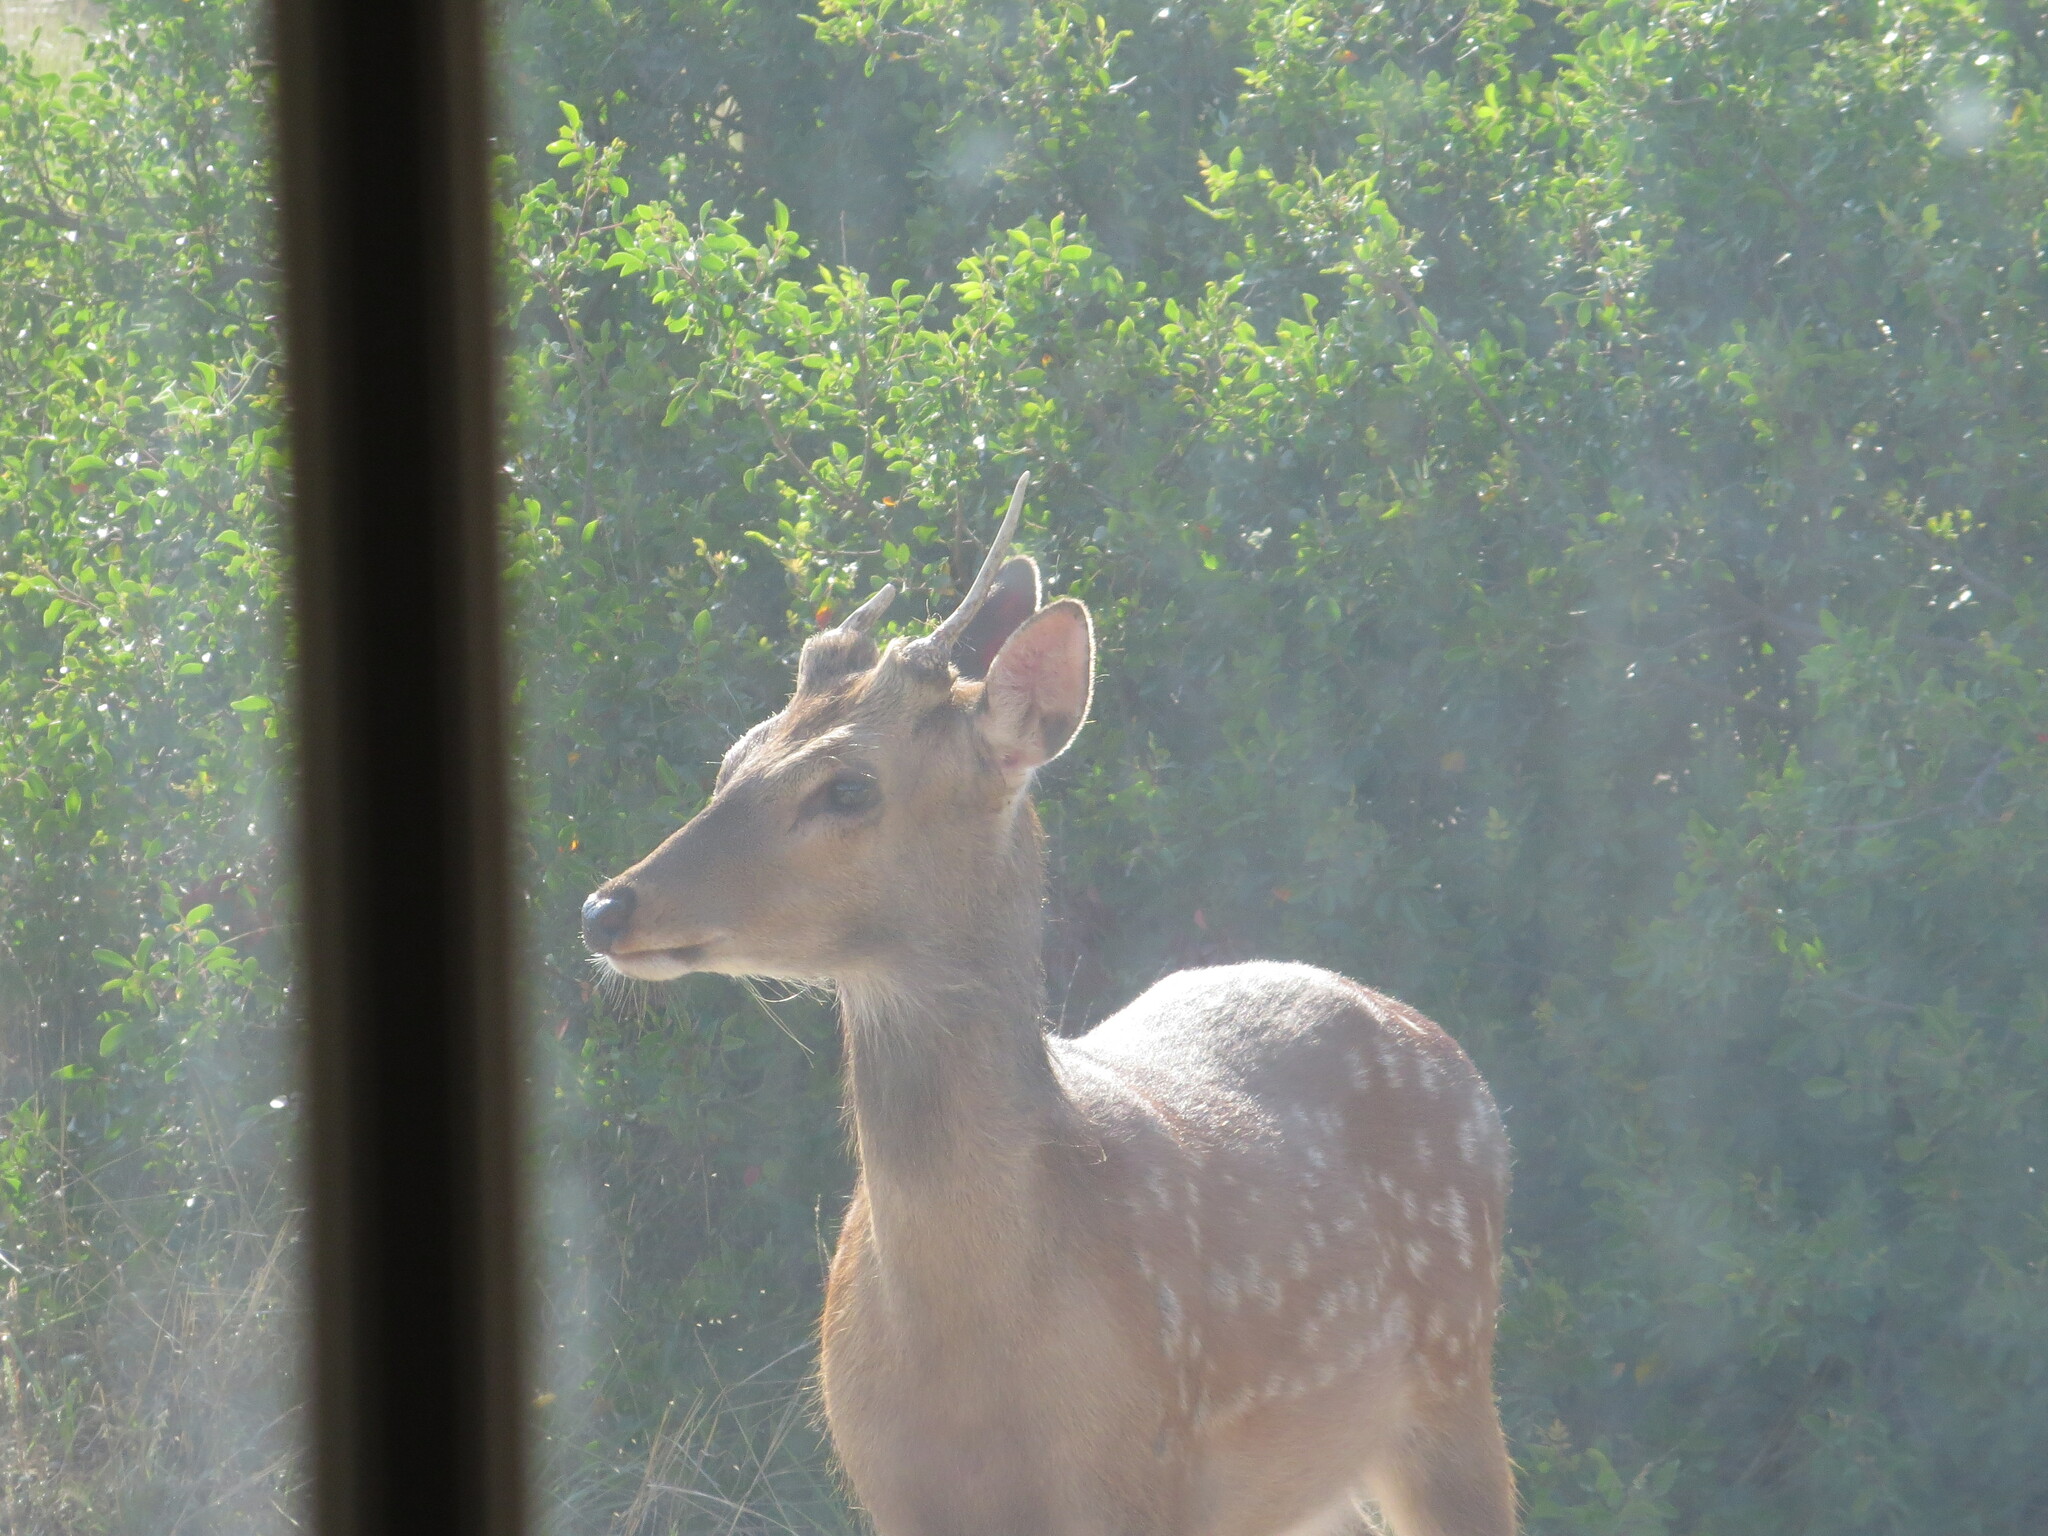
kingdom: Animalia
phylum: Chordata
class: Mammalia
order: Artiodactyla
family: Cervidae
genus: Axis
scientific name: Axis axis
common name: Chital
